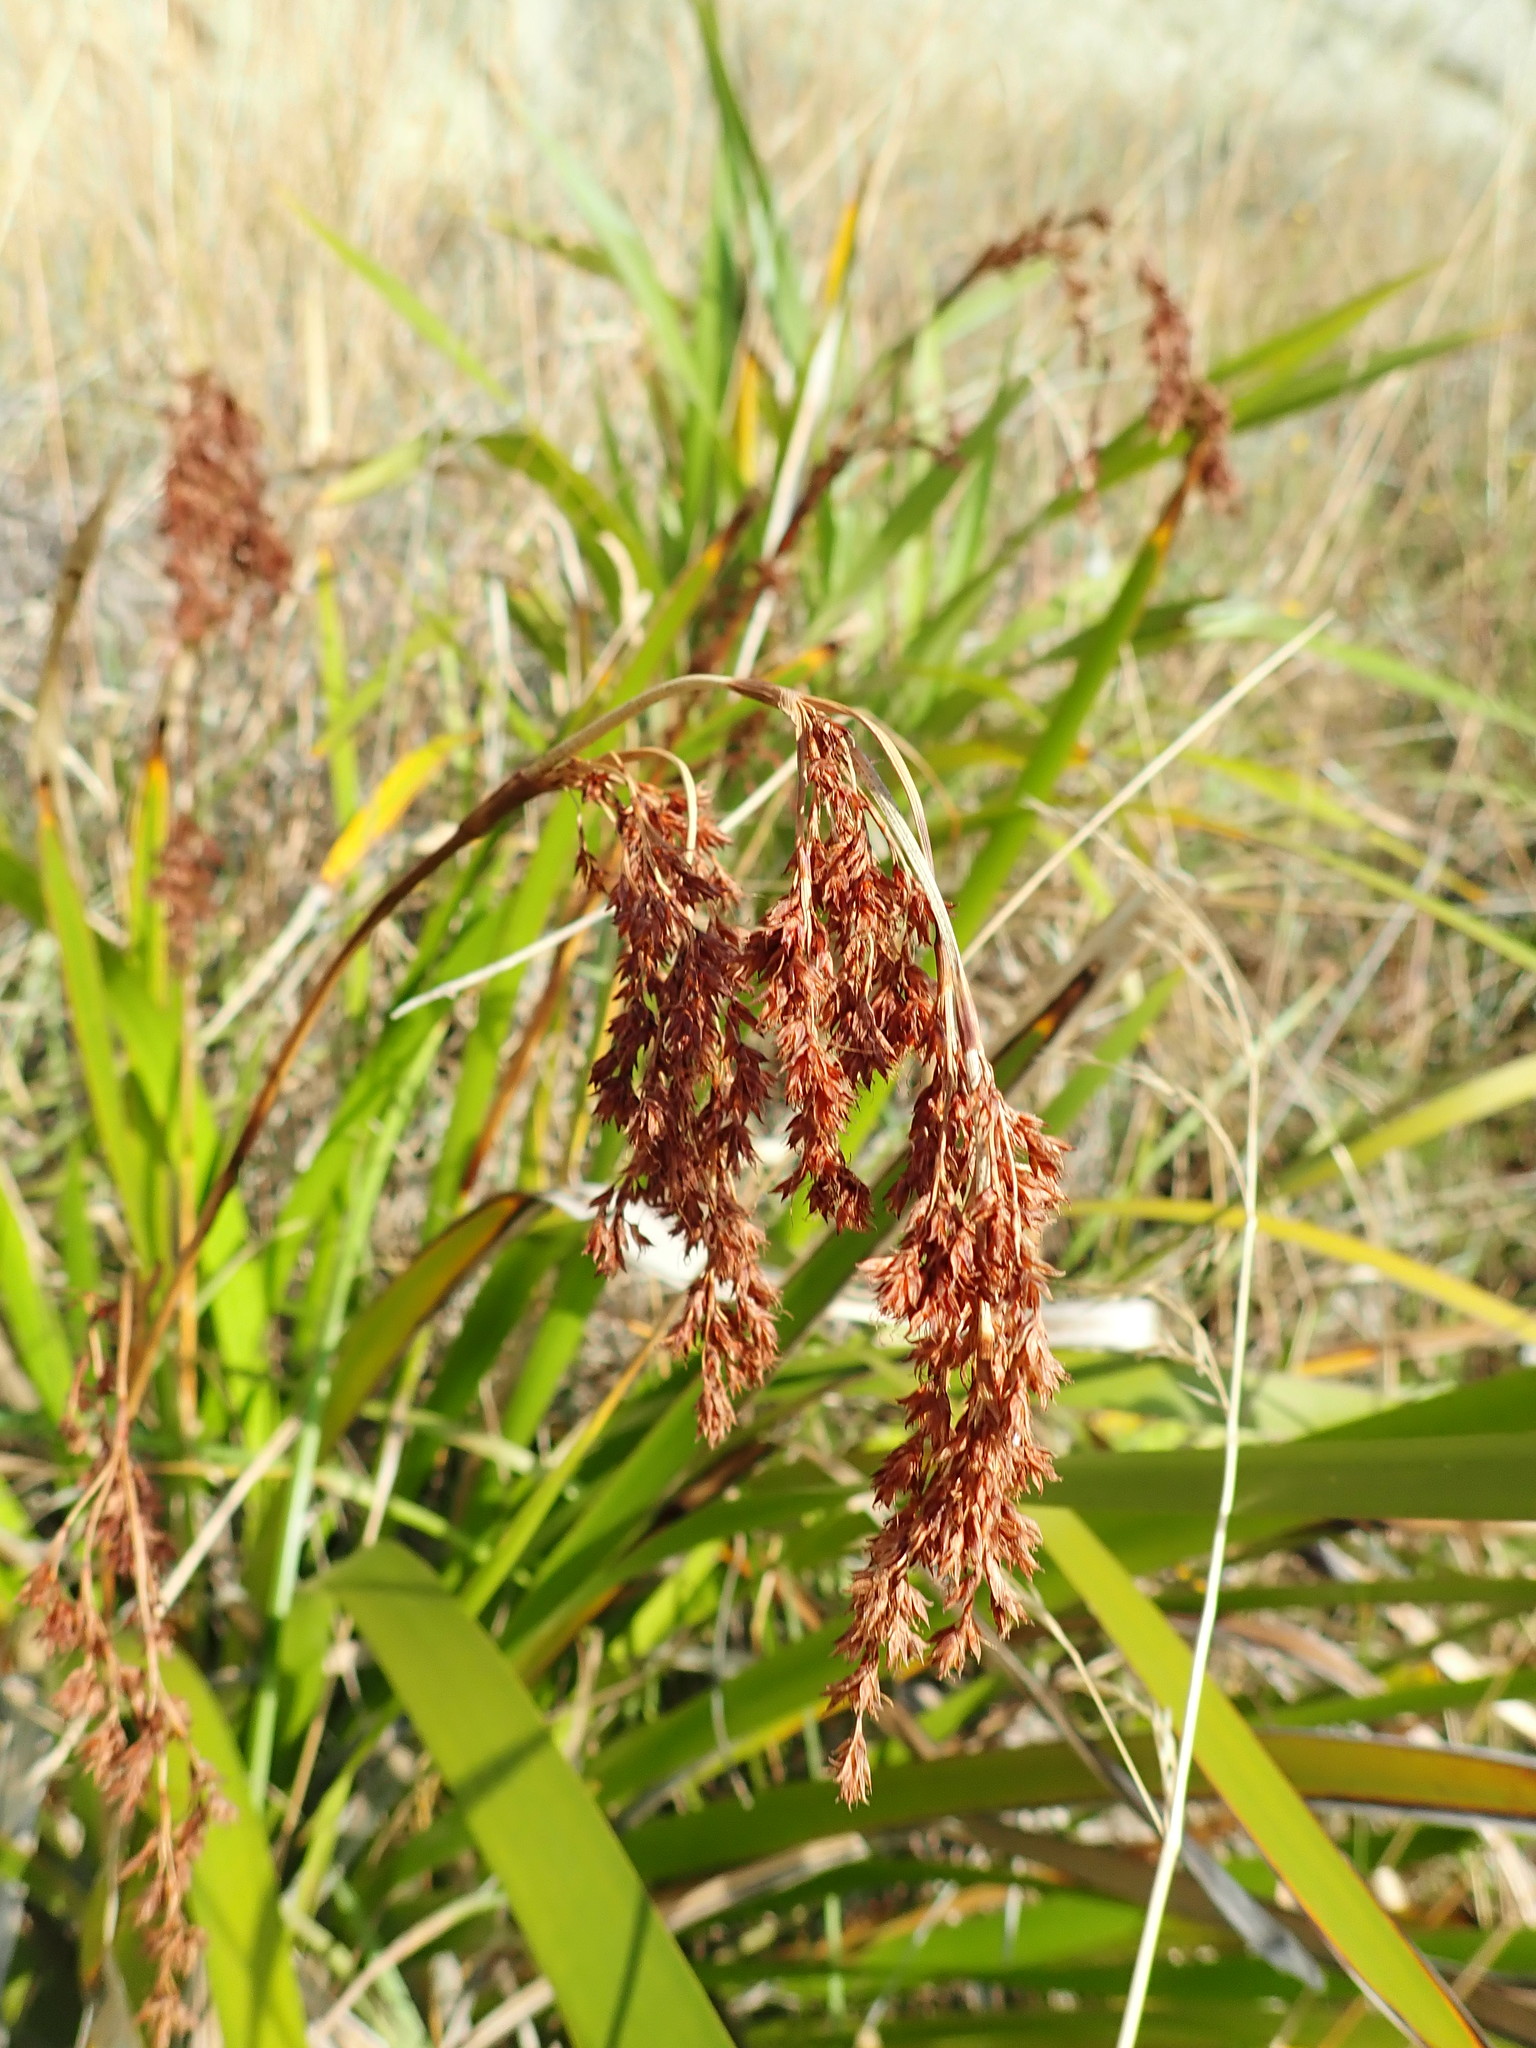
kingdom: Plantae
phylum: Tracheophyta
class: Liliopsida
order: Poales
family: Cyperaceae
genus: Machaerina
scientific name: Machaerina sinclairii
